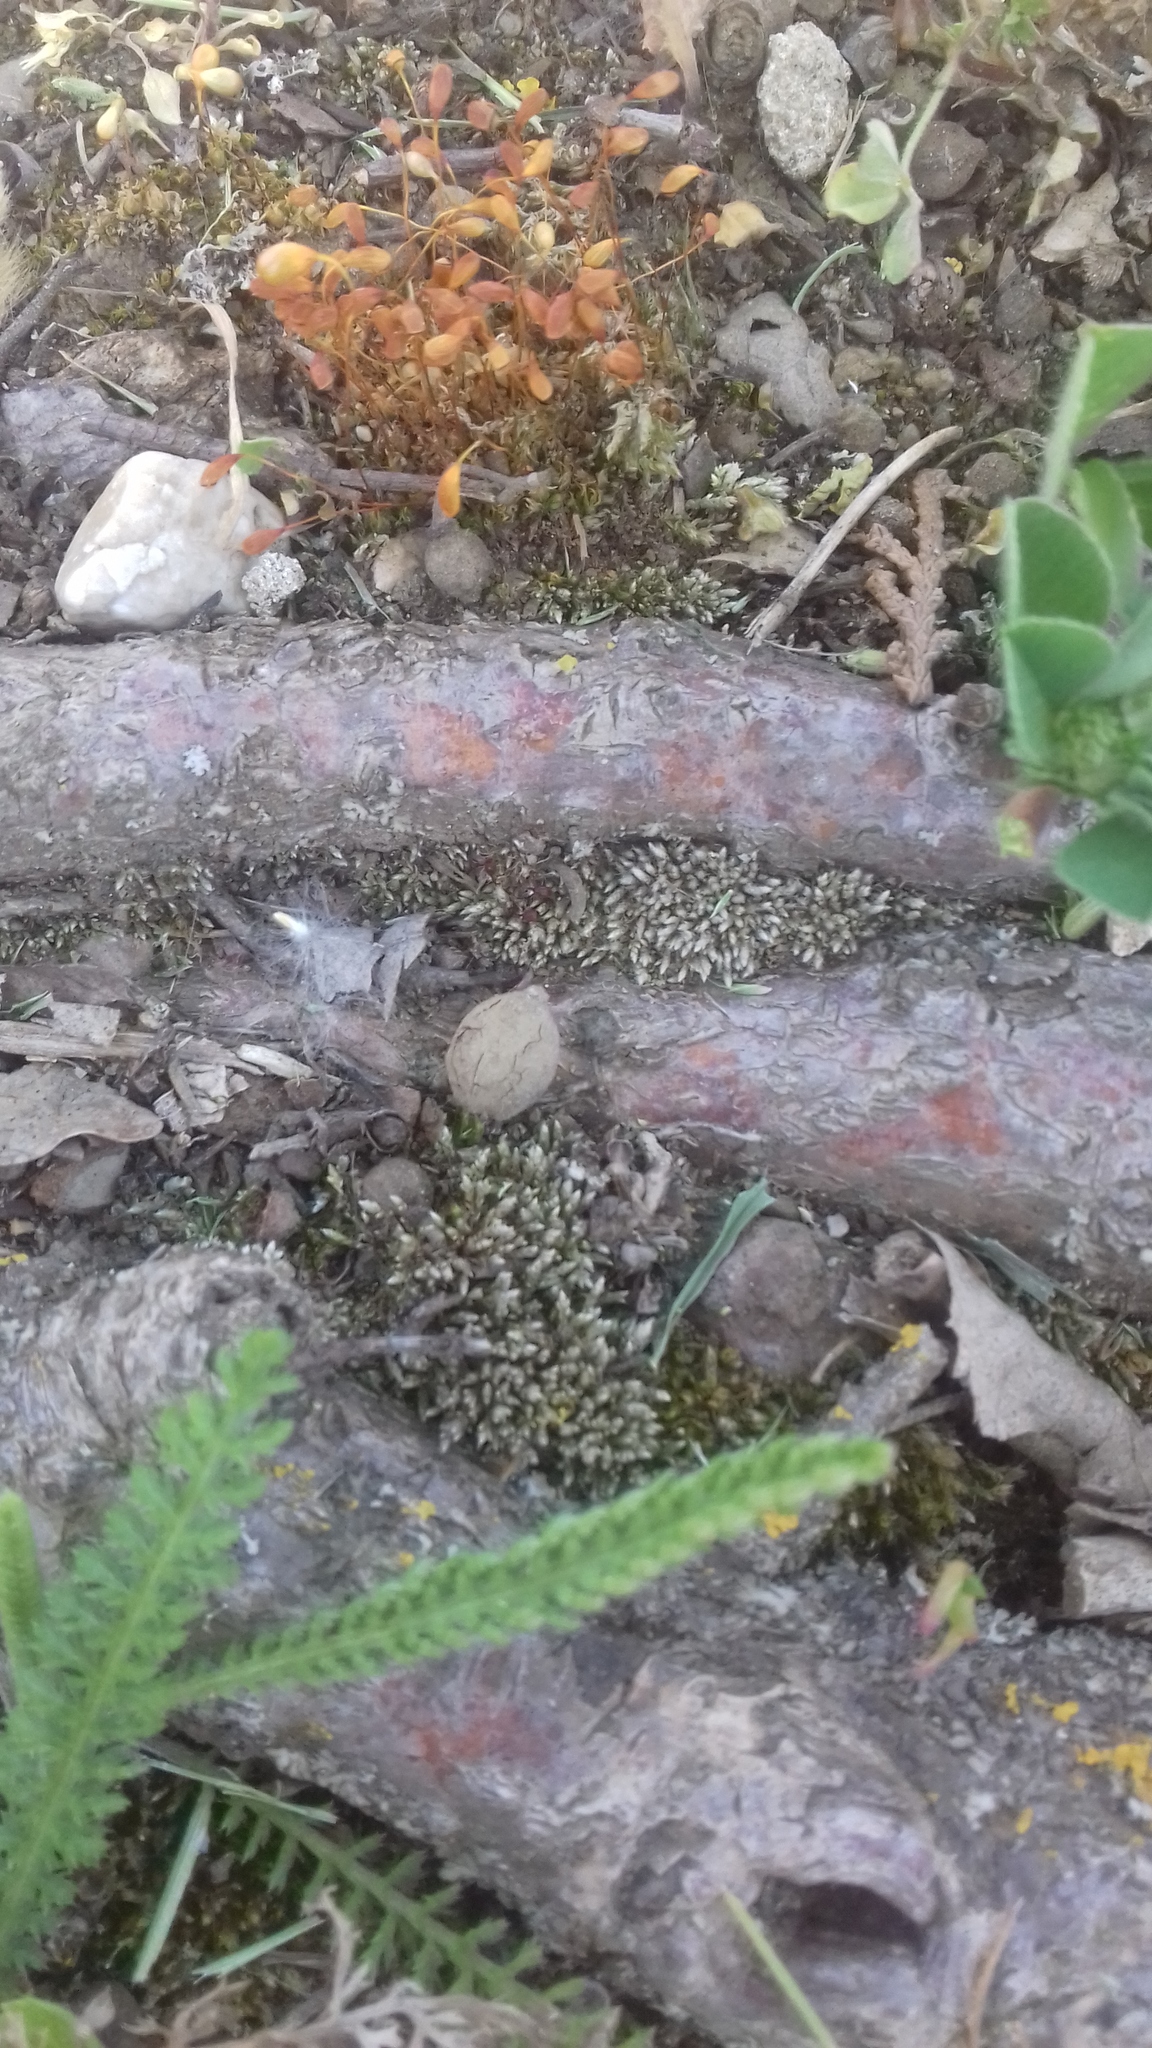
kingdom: Plantae
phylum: Bryophyta
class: Bryopsida
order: Funariales
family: Funariaceae
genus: Funaria
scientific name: Funaria hygrometrica
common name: Common cord moss
